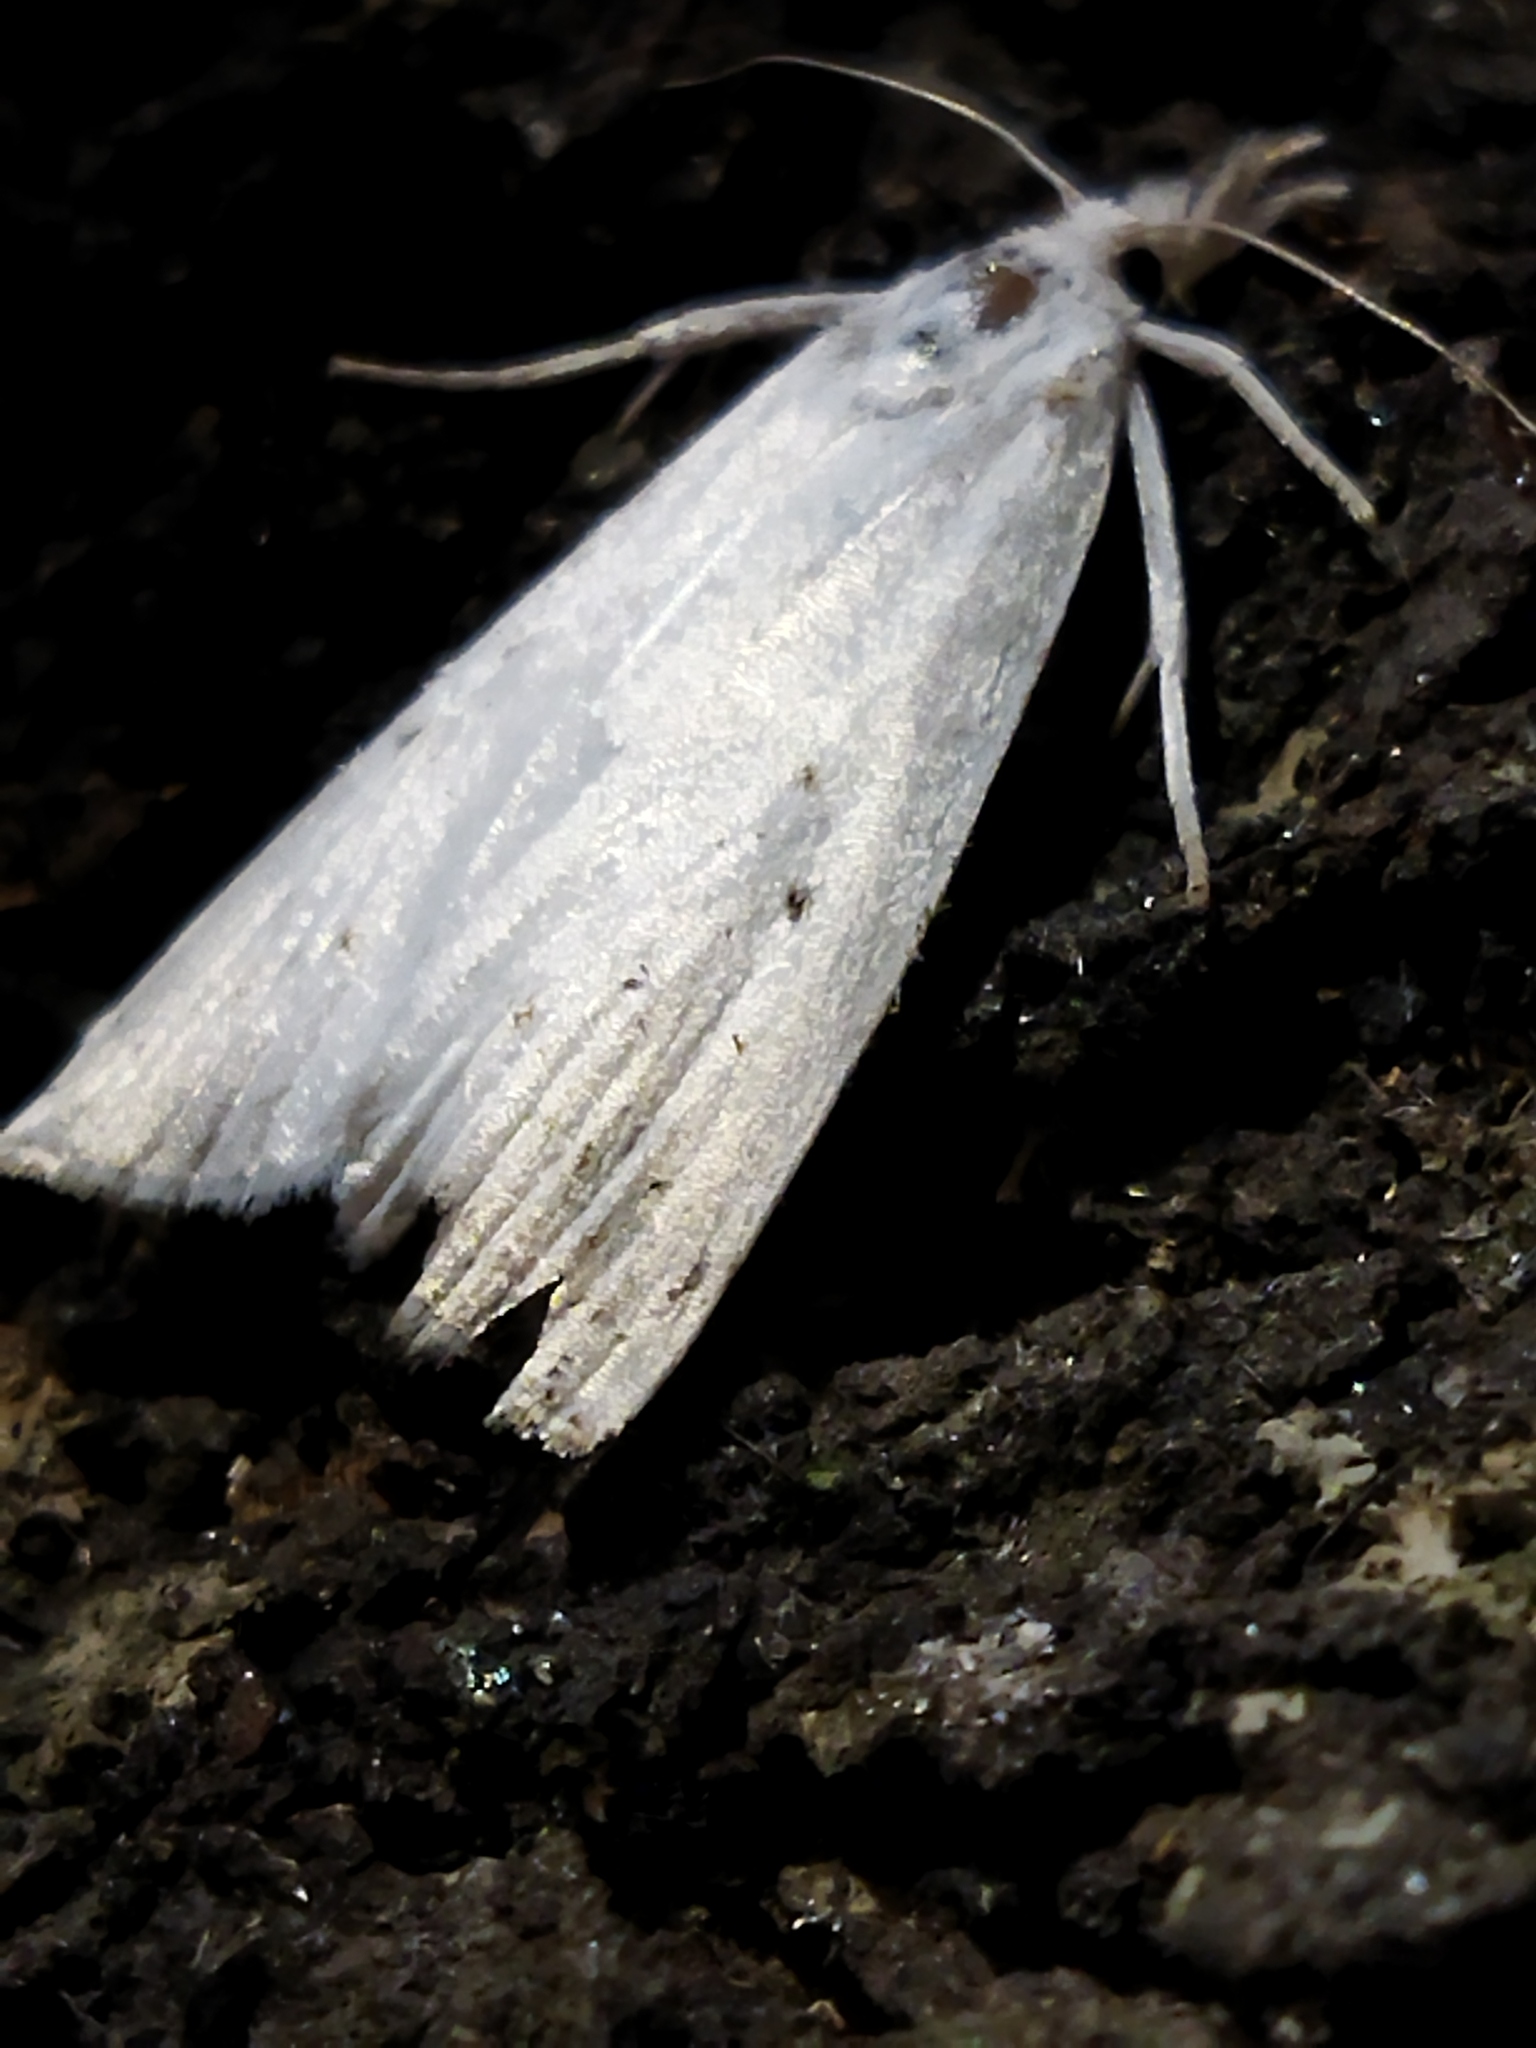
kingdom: Animalia
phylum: Arthropoda
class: Insecta
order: Lepidoptera
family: Crambidae
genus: Scirpophaga
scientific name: Scirpophaga praelata
